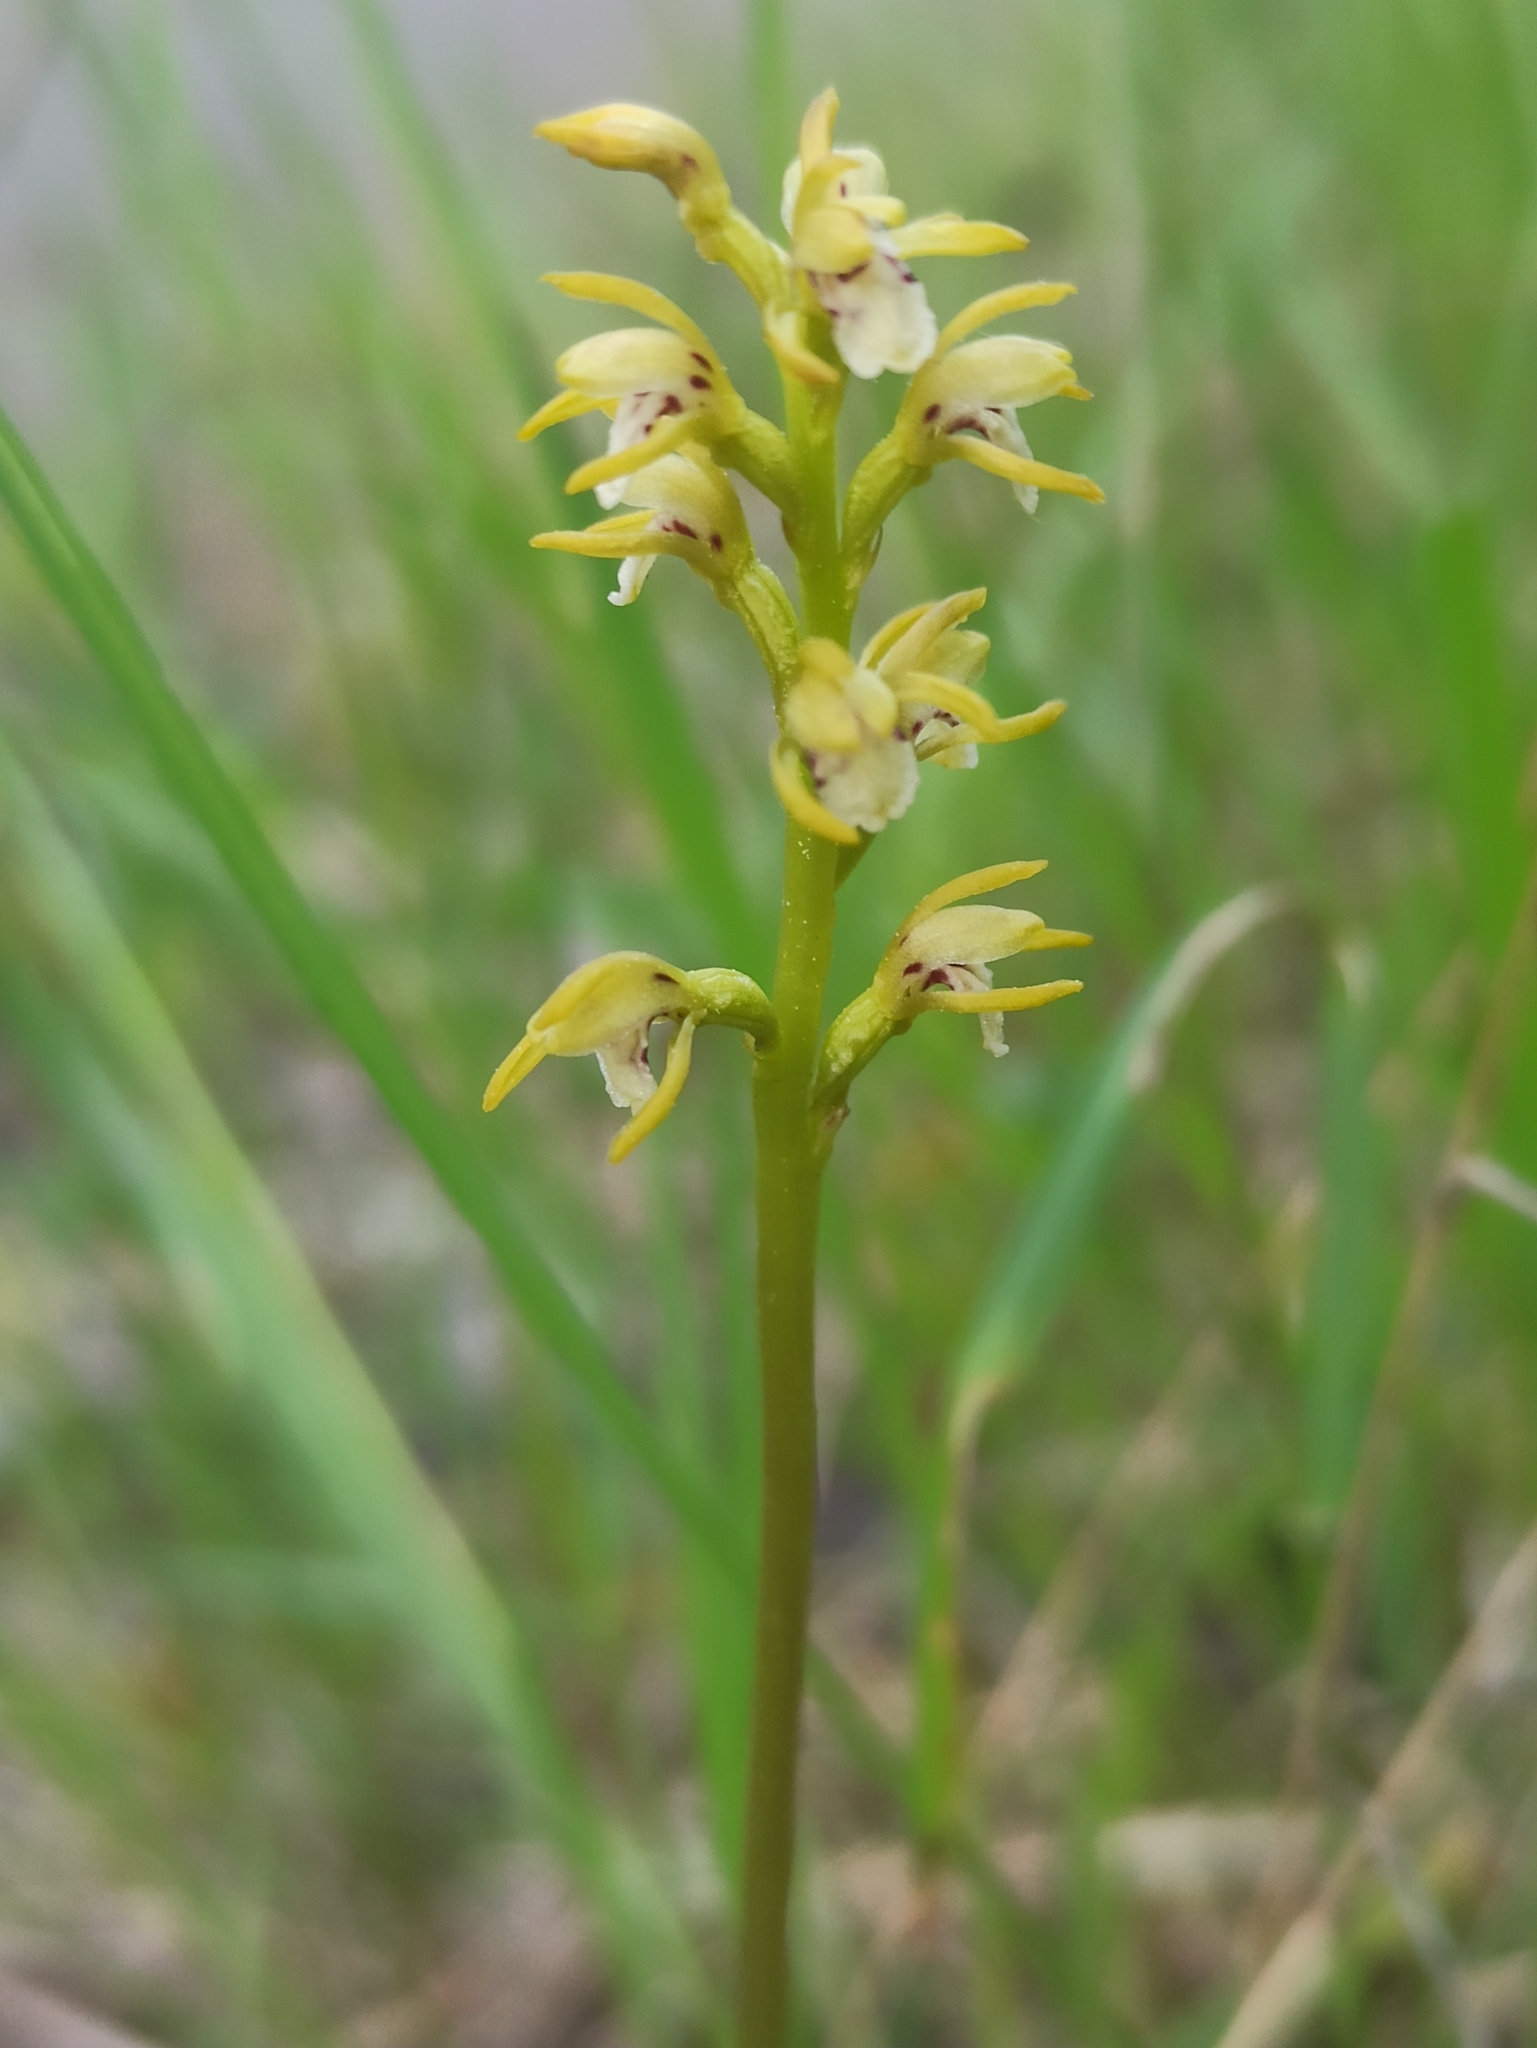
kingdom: Plantae
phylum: Tracheophyta
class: Liliopsida
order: Asparagales
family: Orchidaceae
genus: Corallorhiza
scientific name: Corallorhiza trifida
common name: Yellow coralroot
